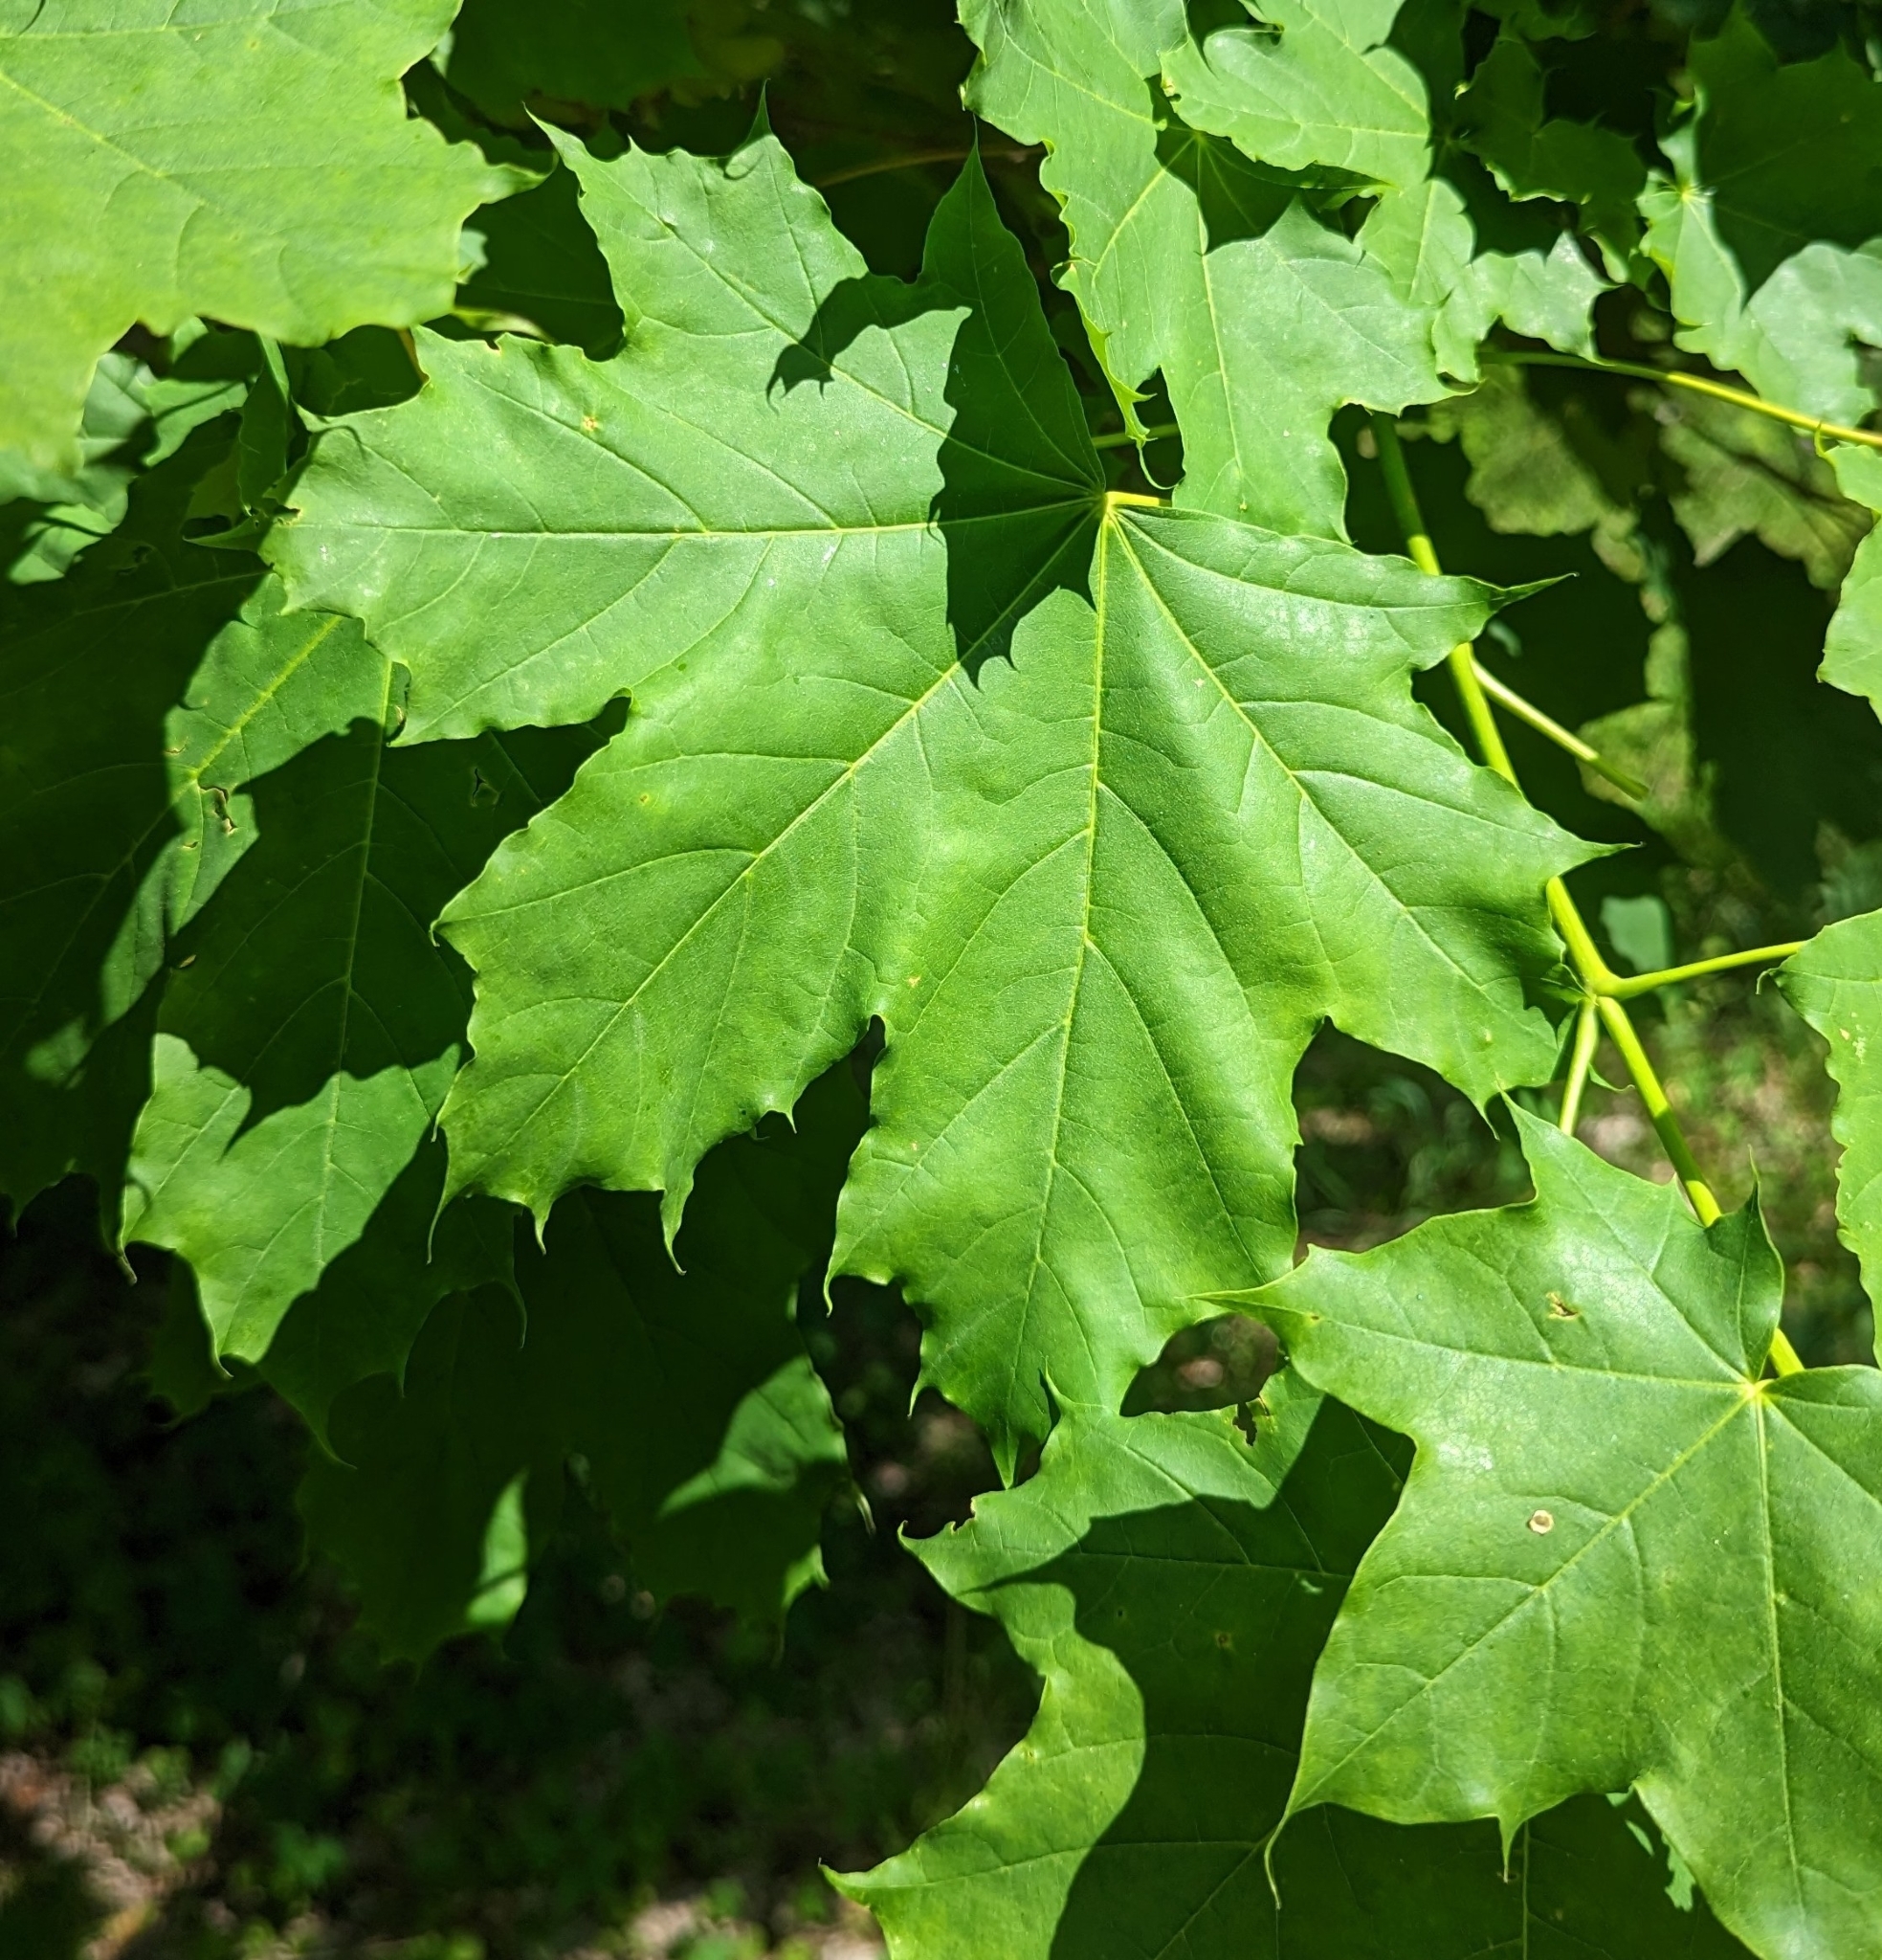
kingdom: Plantae
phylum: Tracheophyta
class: Magnoliopsida
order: Sapindales
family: Sapindaceae
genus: Acer
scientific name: Acer platanoides
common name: Norway maple
